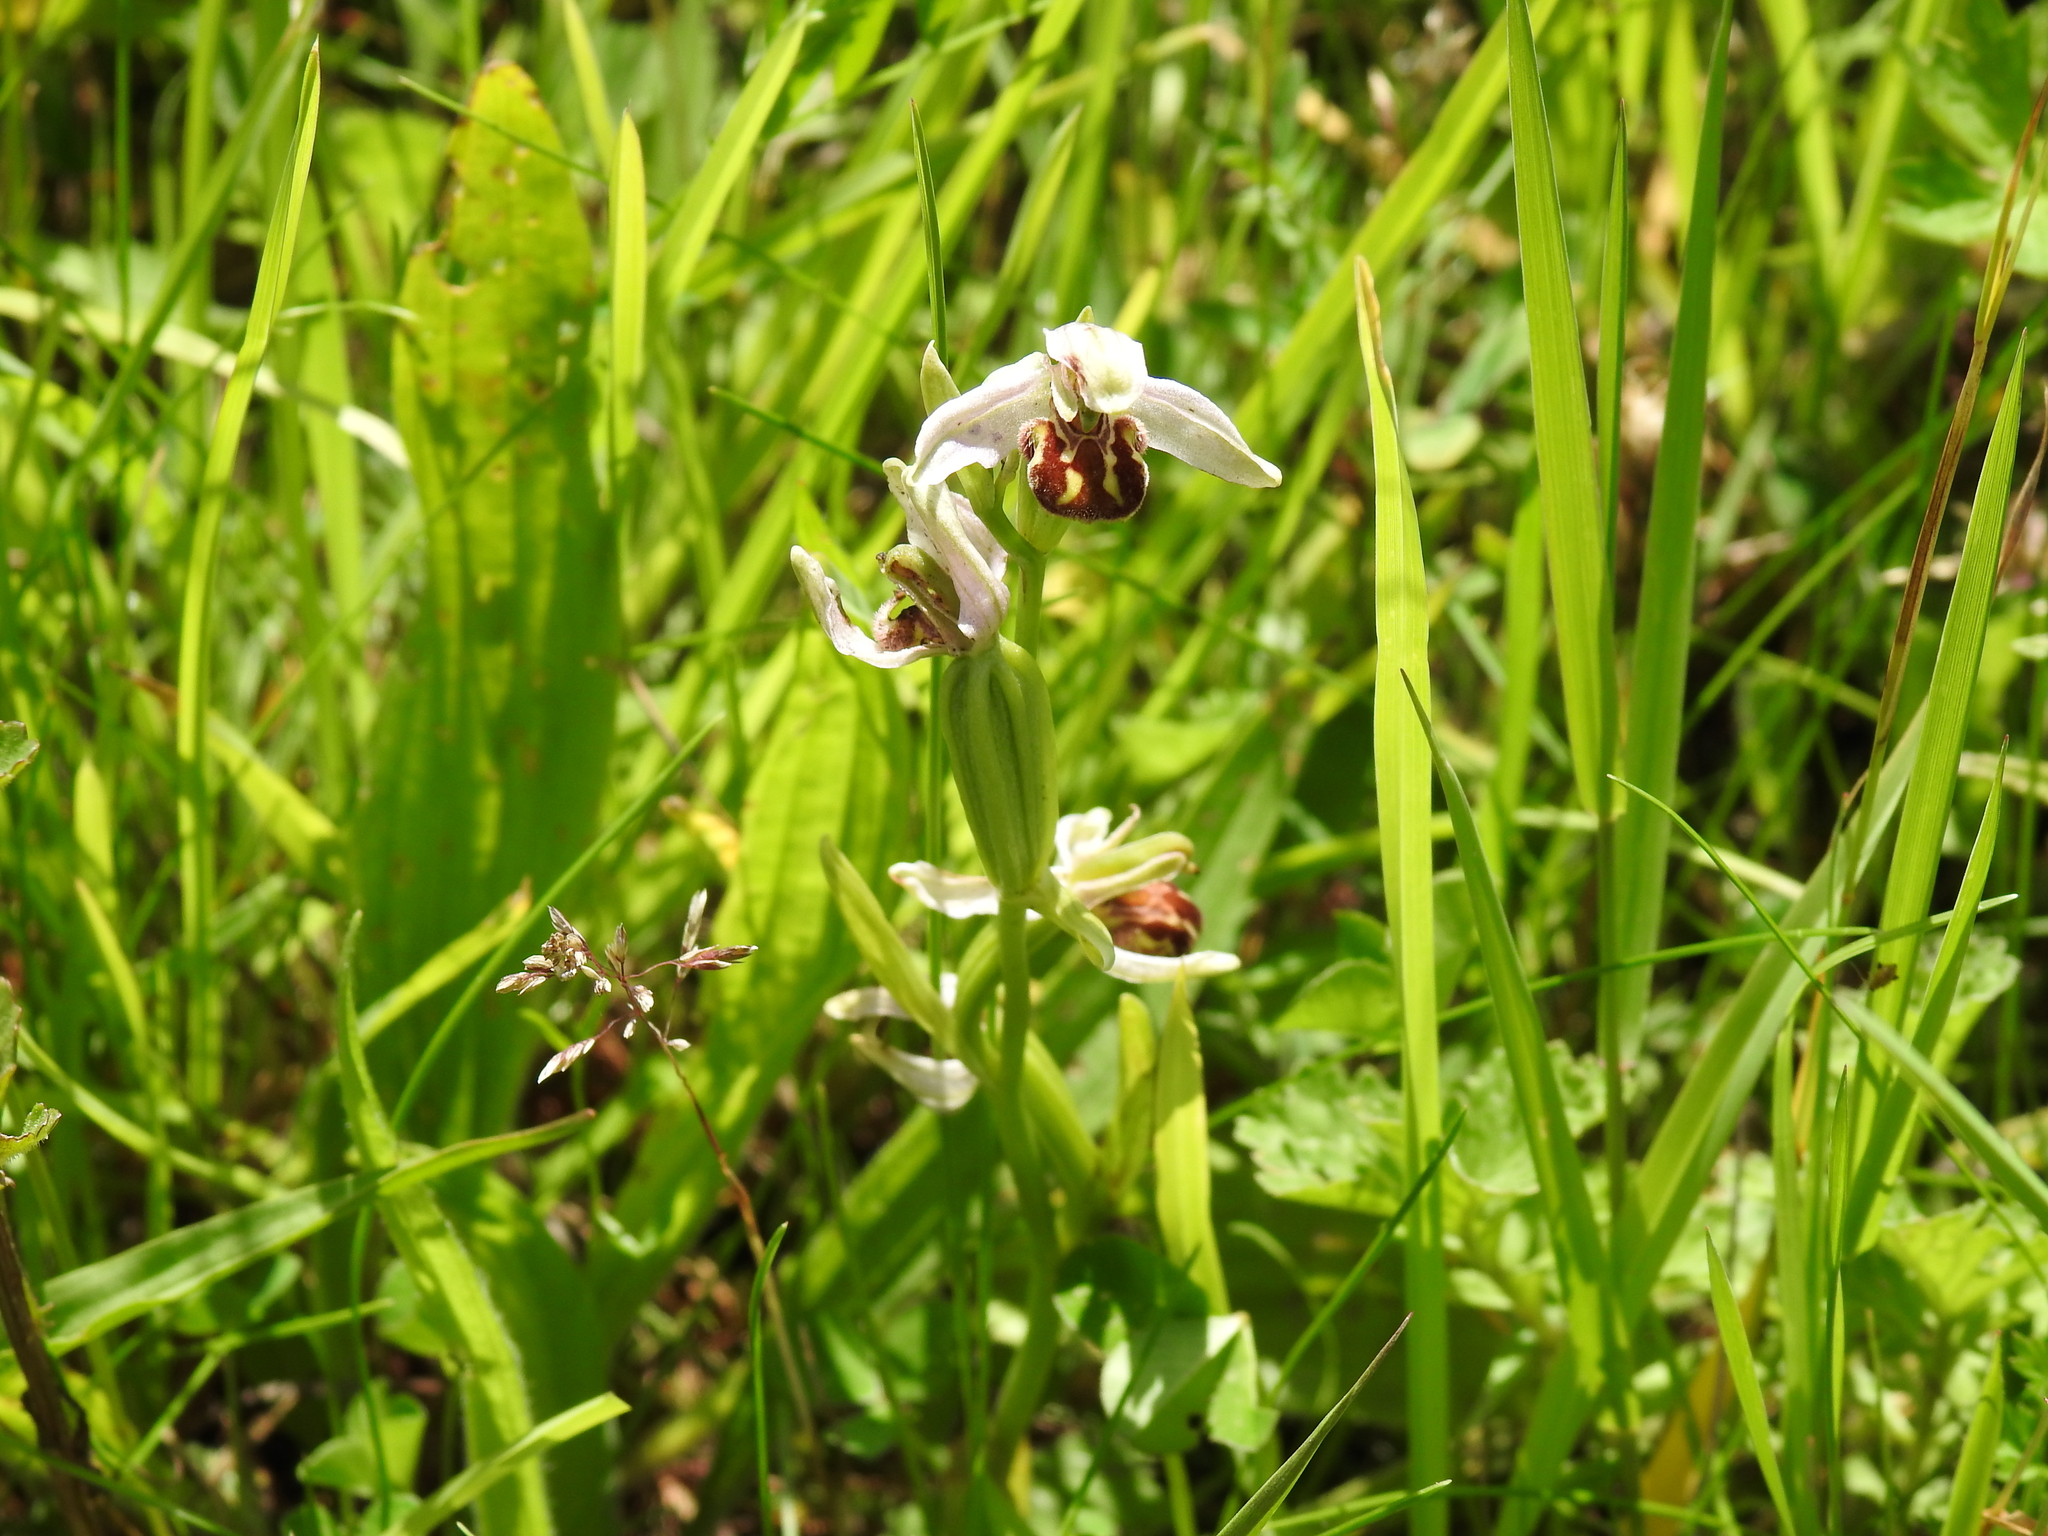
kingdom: Plantae
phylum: Tracheophyta
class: Liliopsida
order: Asparagales
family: Orchidaceae
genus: Ophrys
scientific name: Ophrys apifera
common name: Bee orchid
